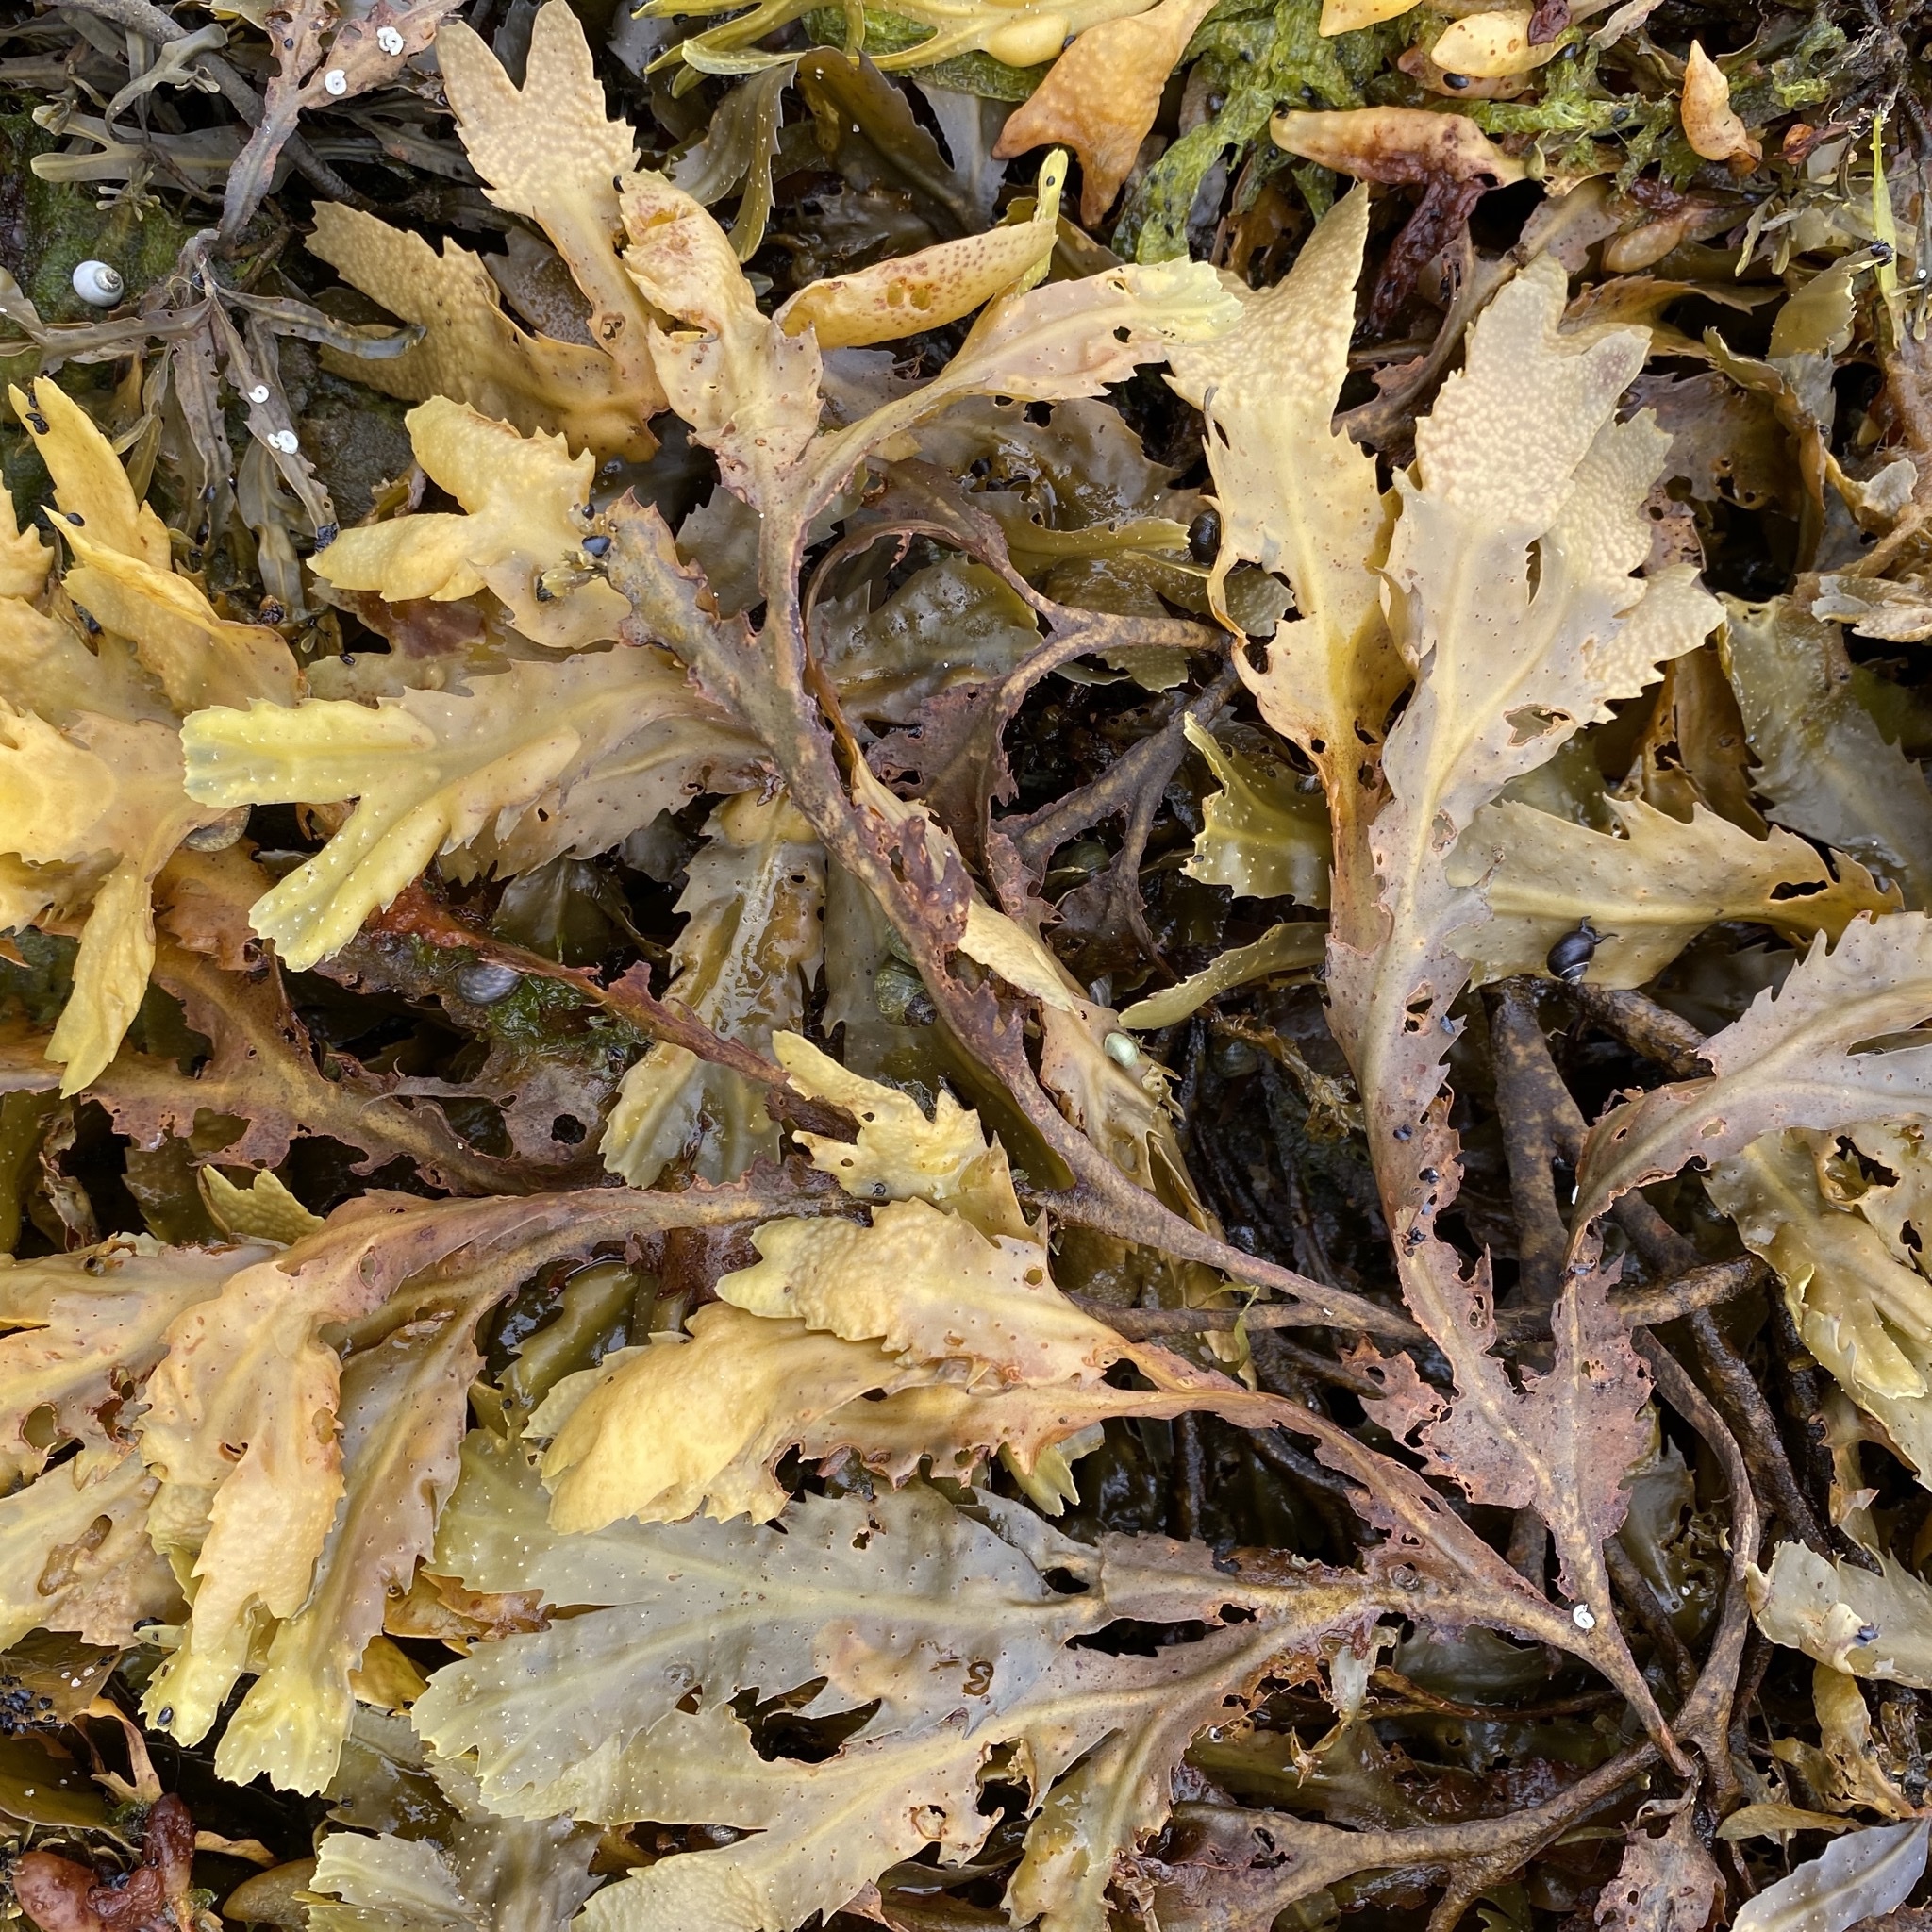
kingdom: Chromista
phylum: Ochrophyta
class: Phaeophyceae
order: Fucales
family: Fucaceae
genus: Fucus
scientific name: Fucus serratus
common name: Toothed wrack
